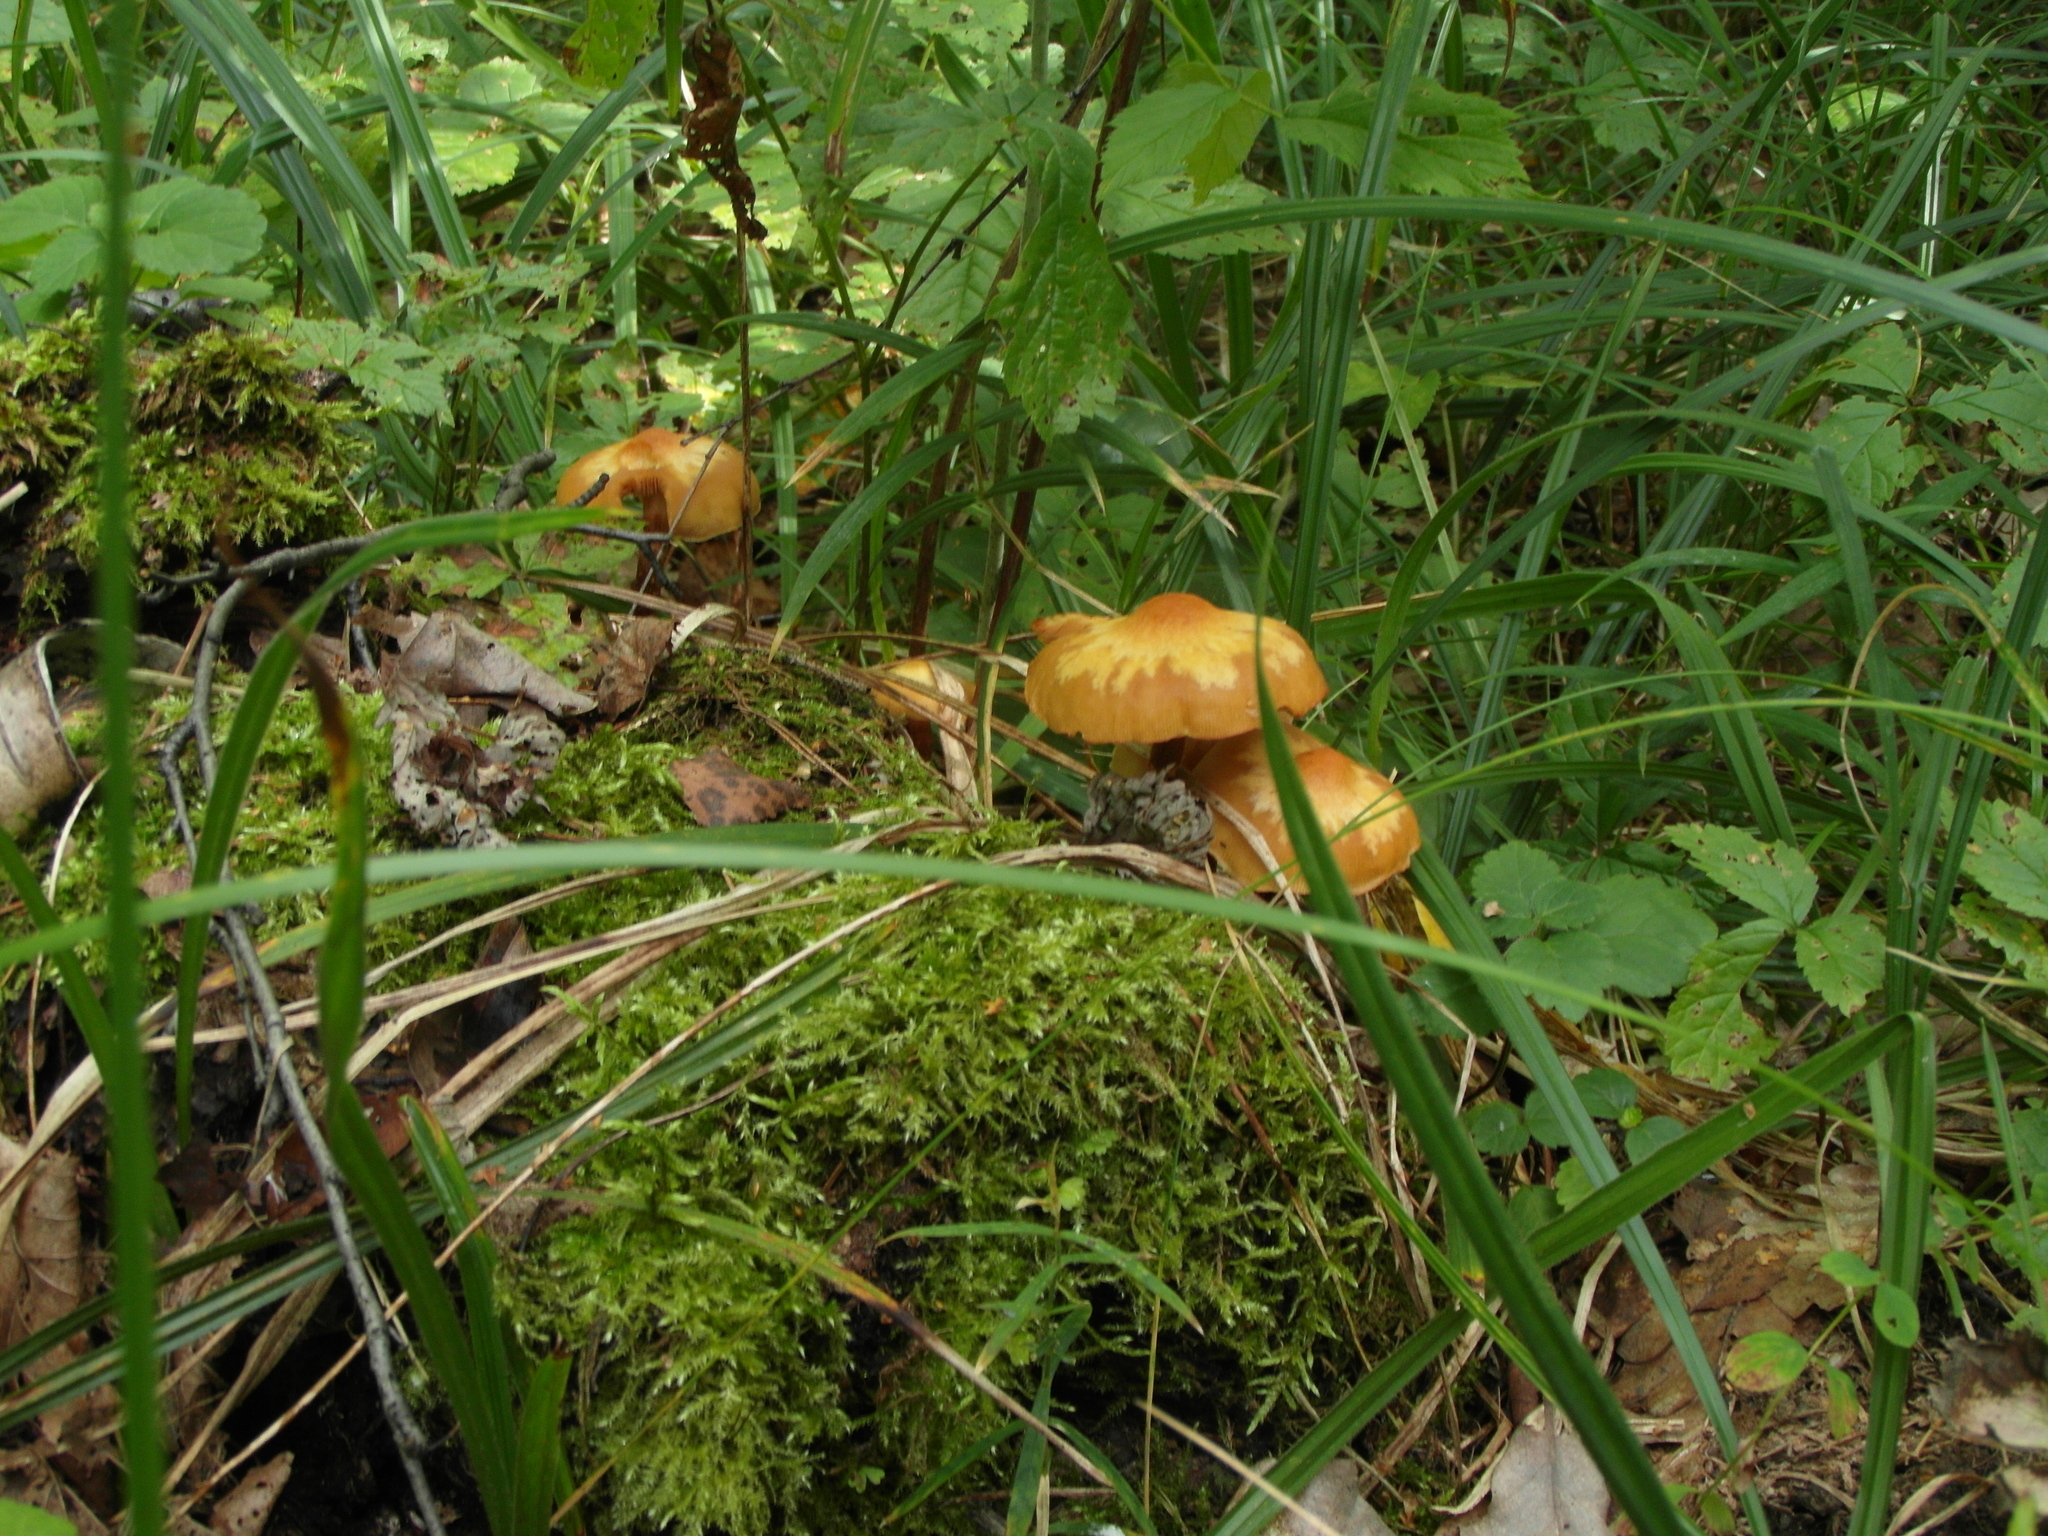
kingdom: Fungi
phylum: Basidiomycota
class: Agaricomycetes
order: Agaricales
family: Strophariaceae
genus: Kuehneromyces
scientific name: Kuehneromyces mutabilis
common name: Sheathed woodtuft
